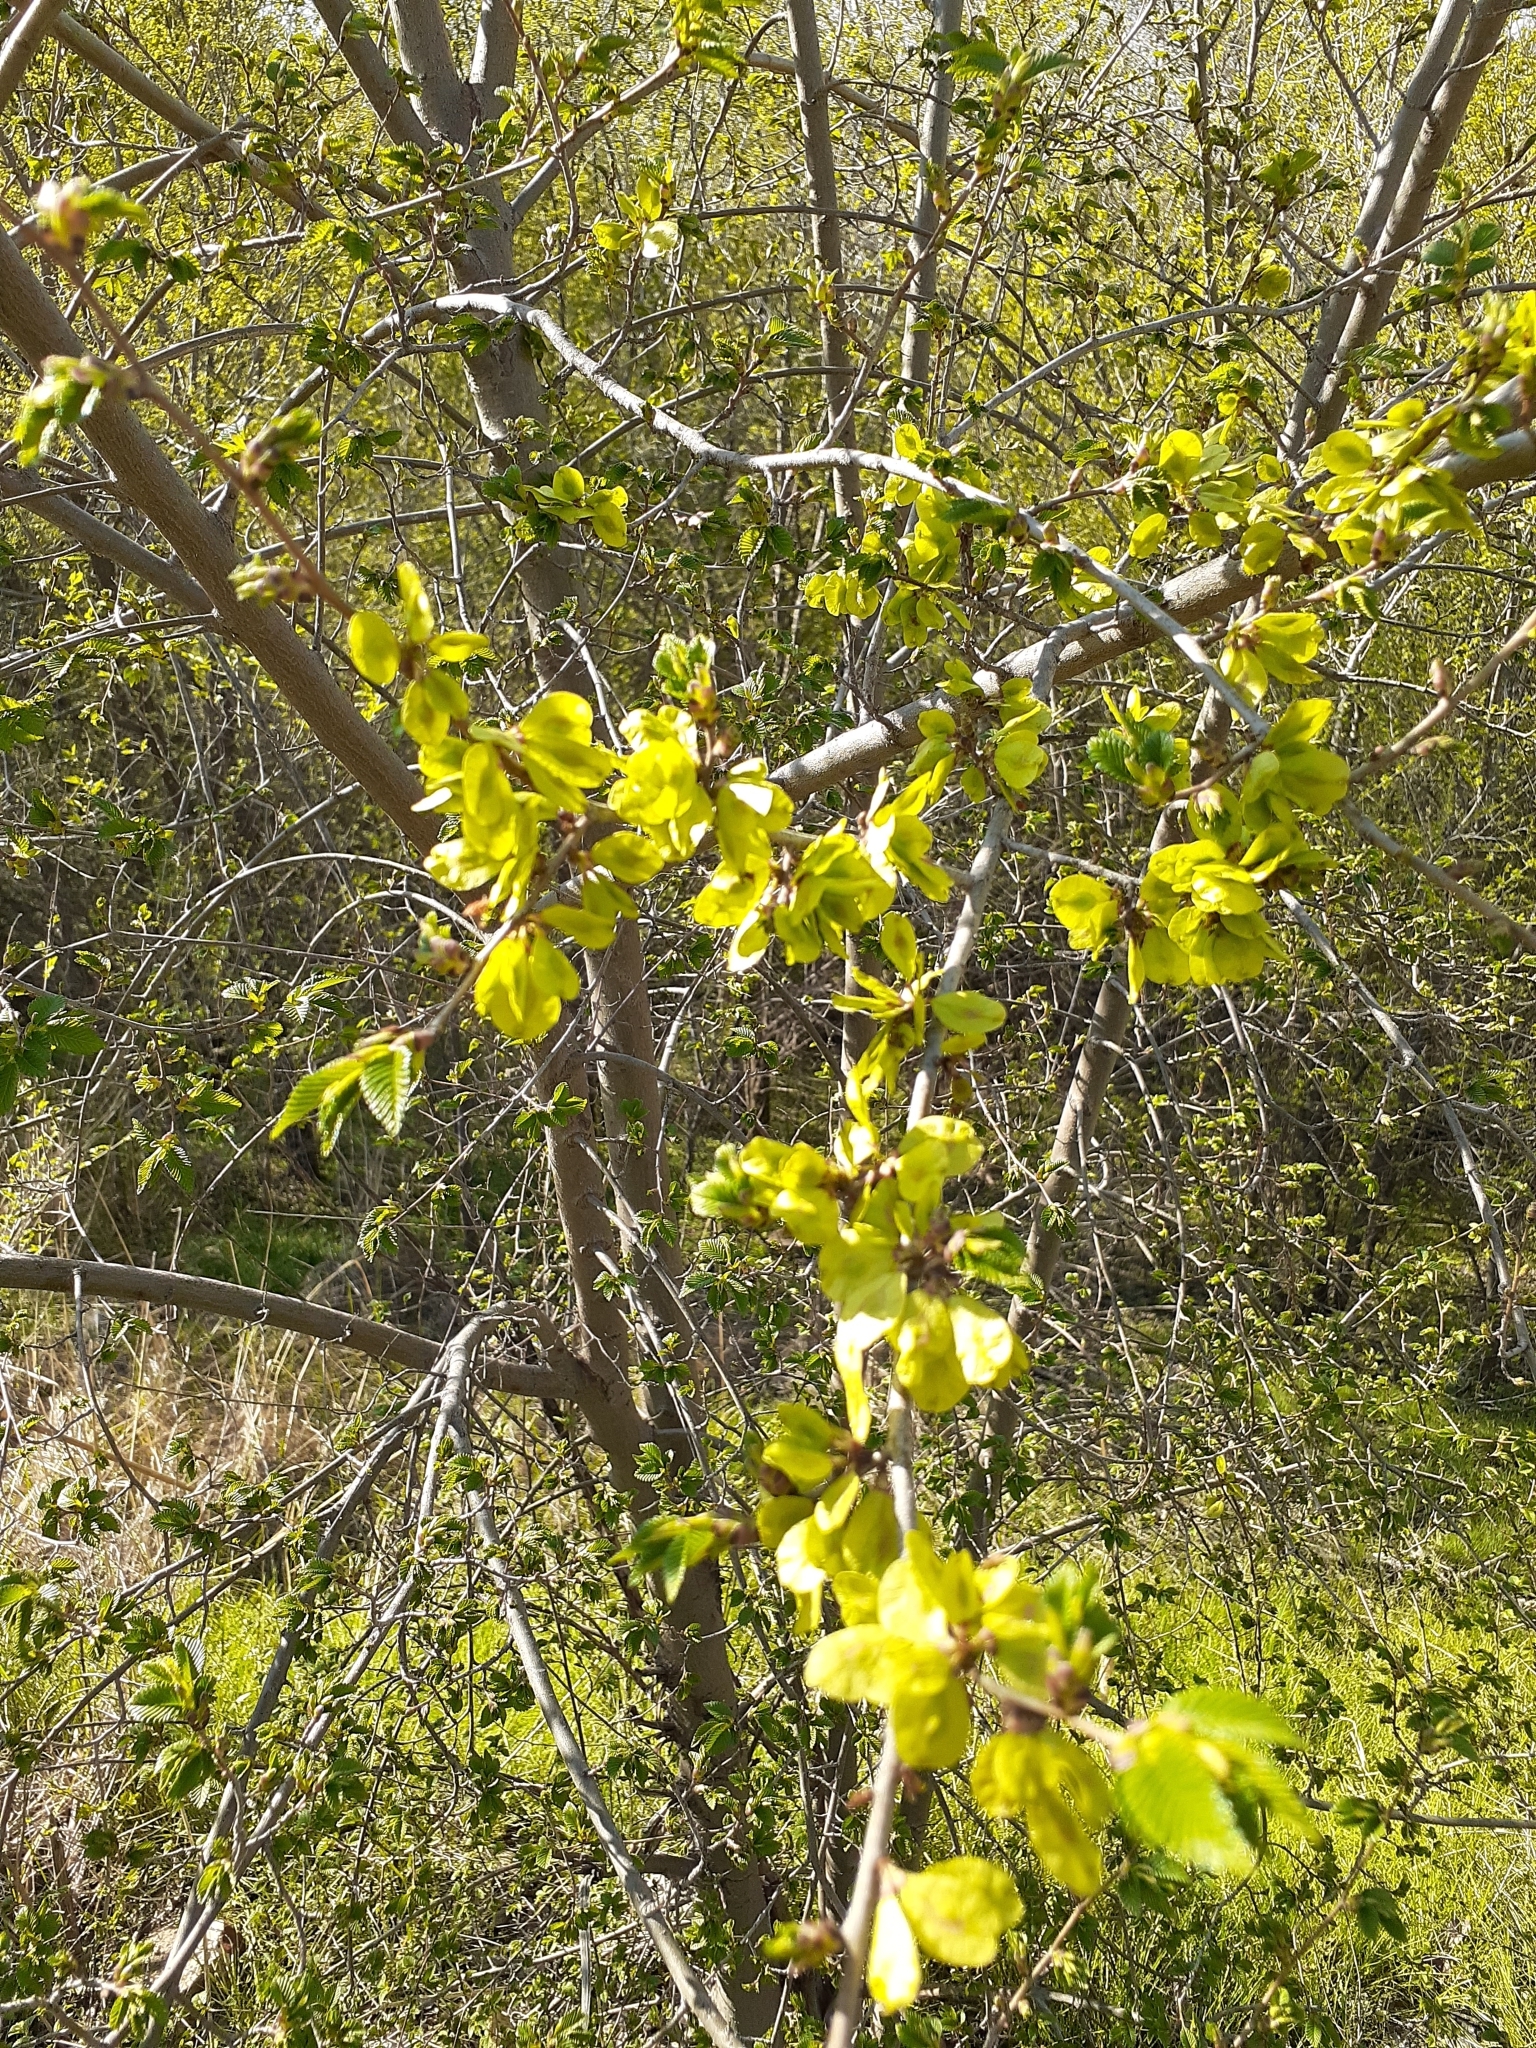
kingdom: Plantae
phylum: Tracheophyta
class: Magnoliopsida
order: Rosales
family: Ulmaceae
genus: Ulmus
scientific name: Ulmus pumila
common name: Siberian elm
